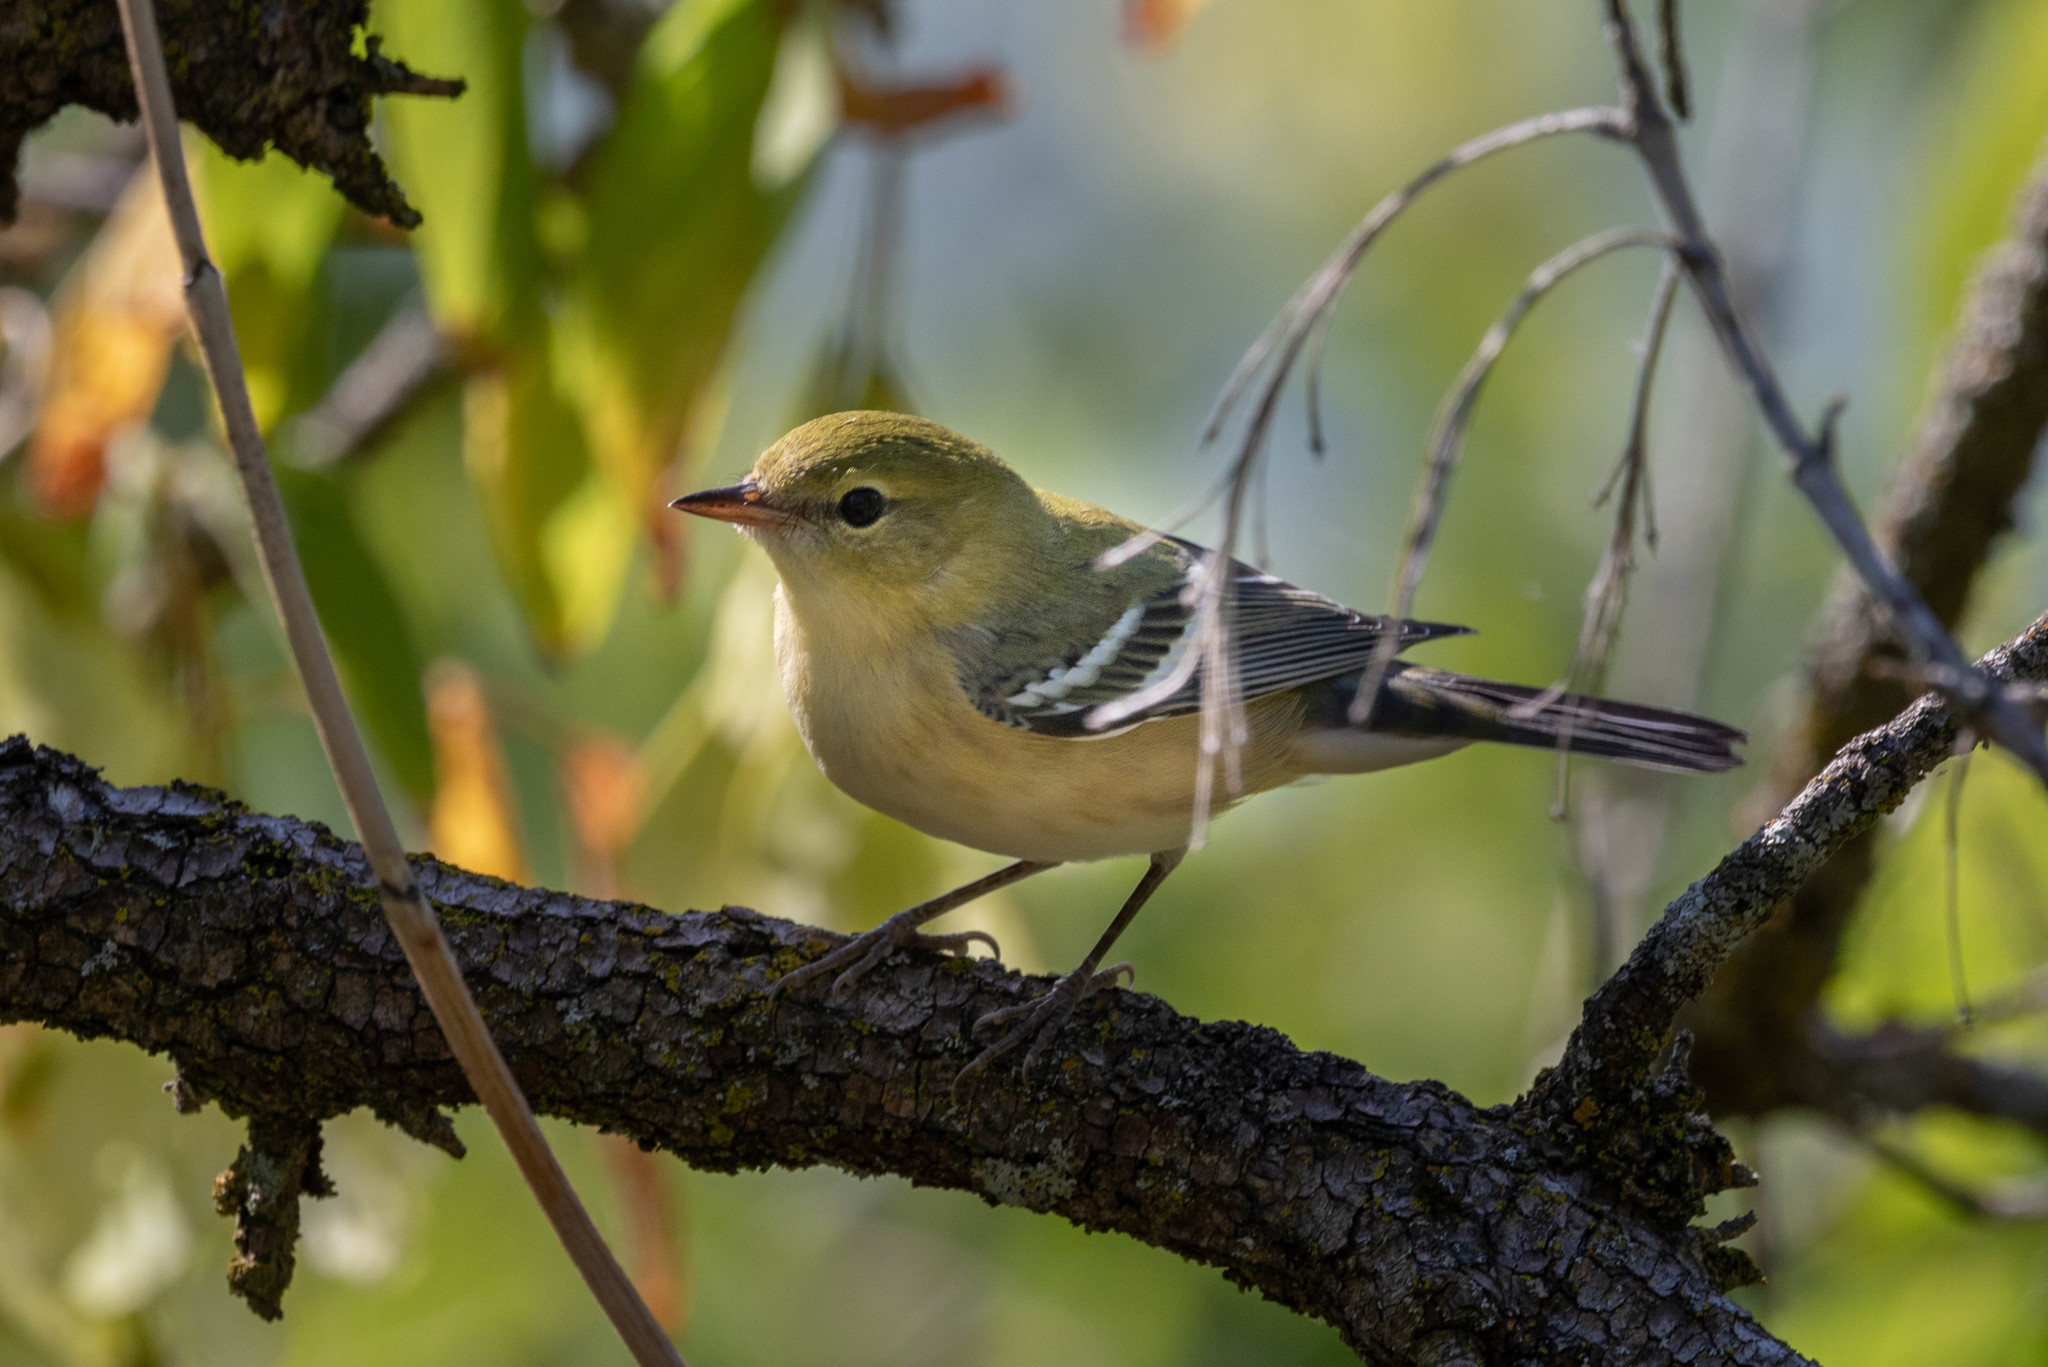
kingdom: Animalia
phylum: Chordata
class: Aves
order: Passeriformes
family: Parulidae
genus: Setophaga
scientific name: Setophaga castanea
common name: Bay-breasted warbler
